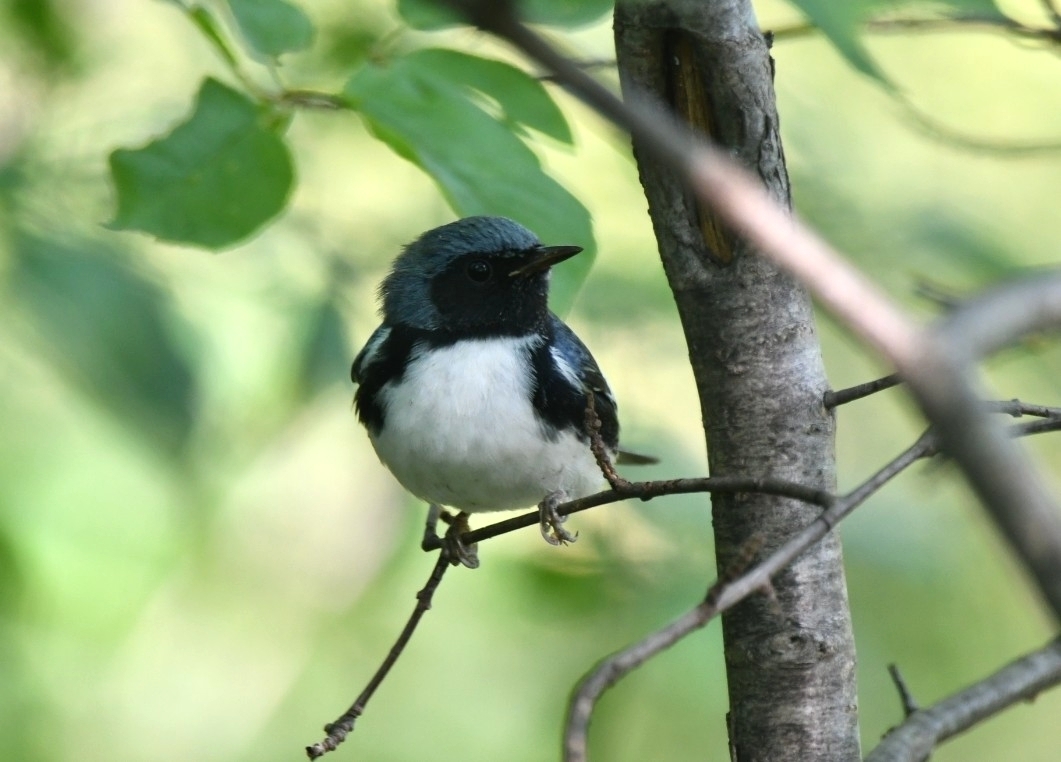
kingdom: Animalia
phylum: Chordata
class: Aves
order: Passeriformes
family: Parulidae
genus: Setophaga
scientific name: Setophaga caerulescens
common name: Black-throated blue warbler
